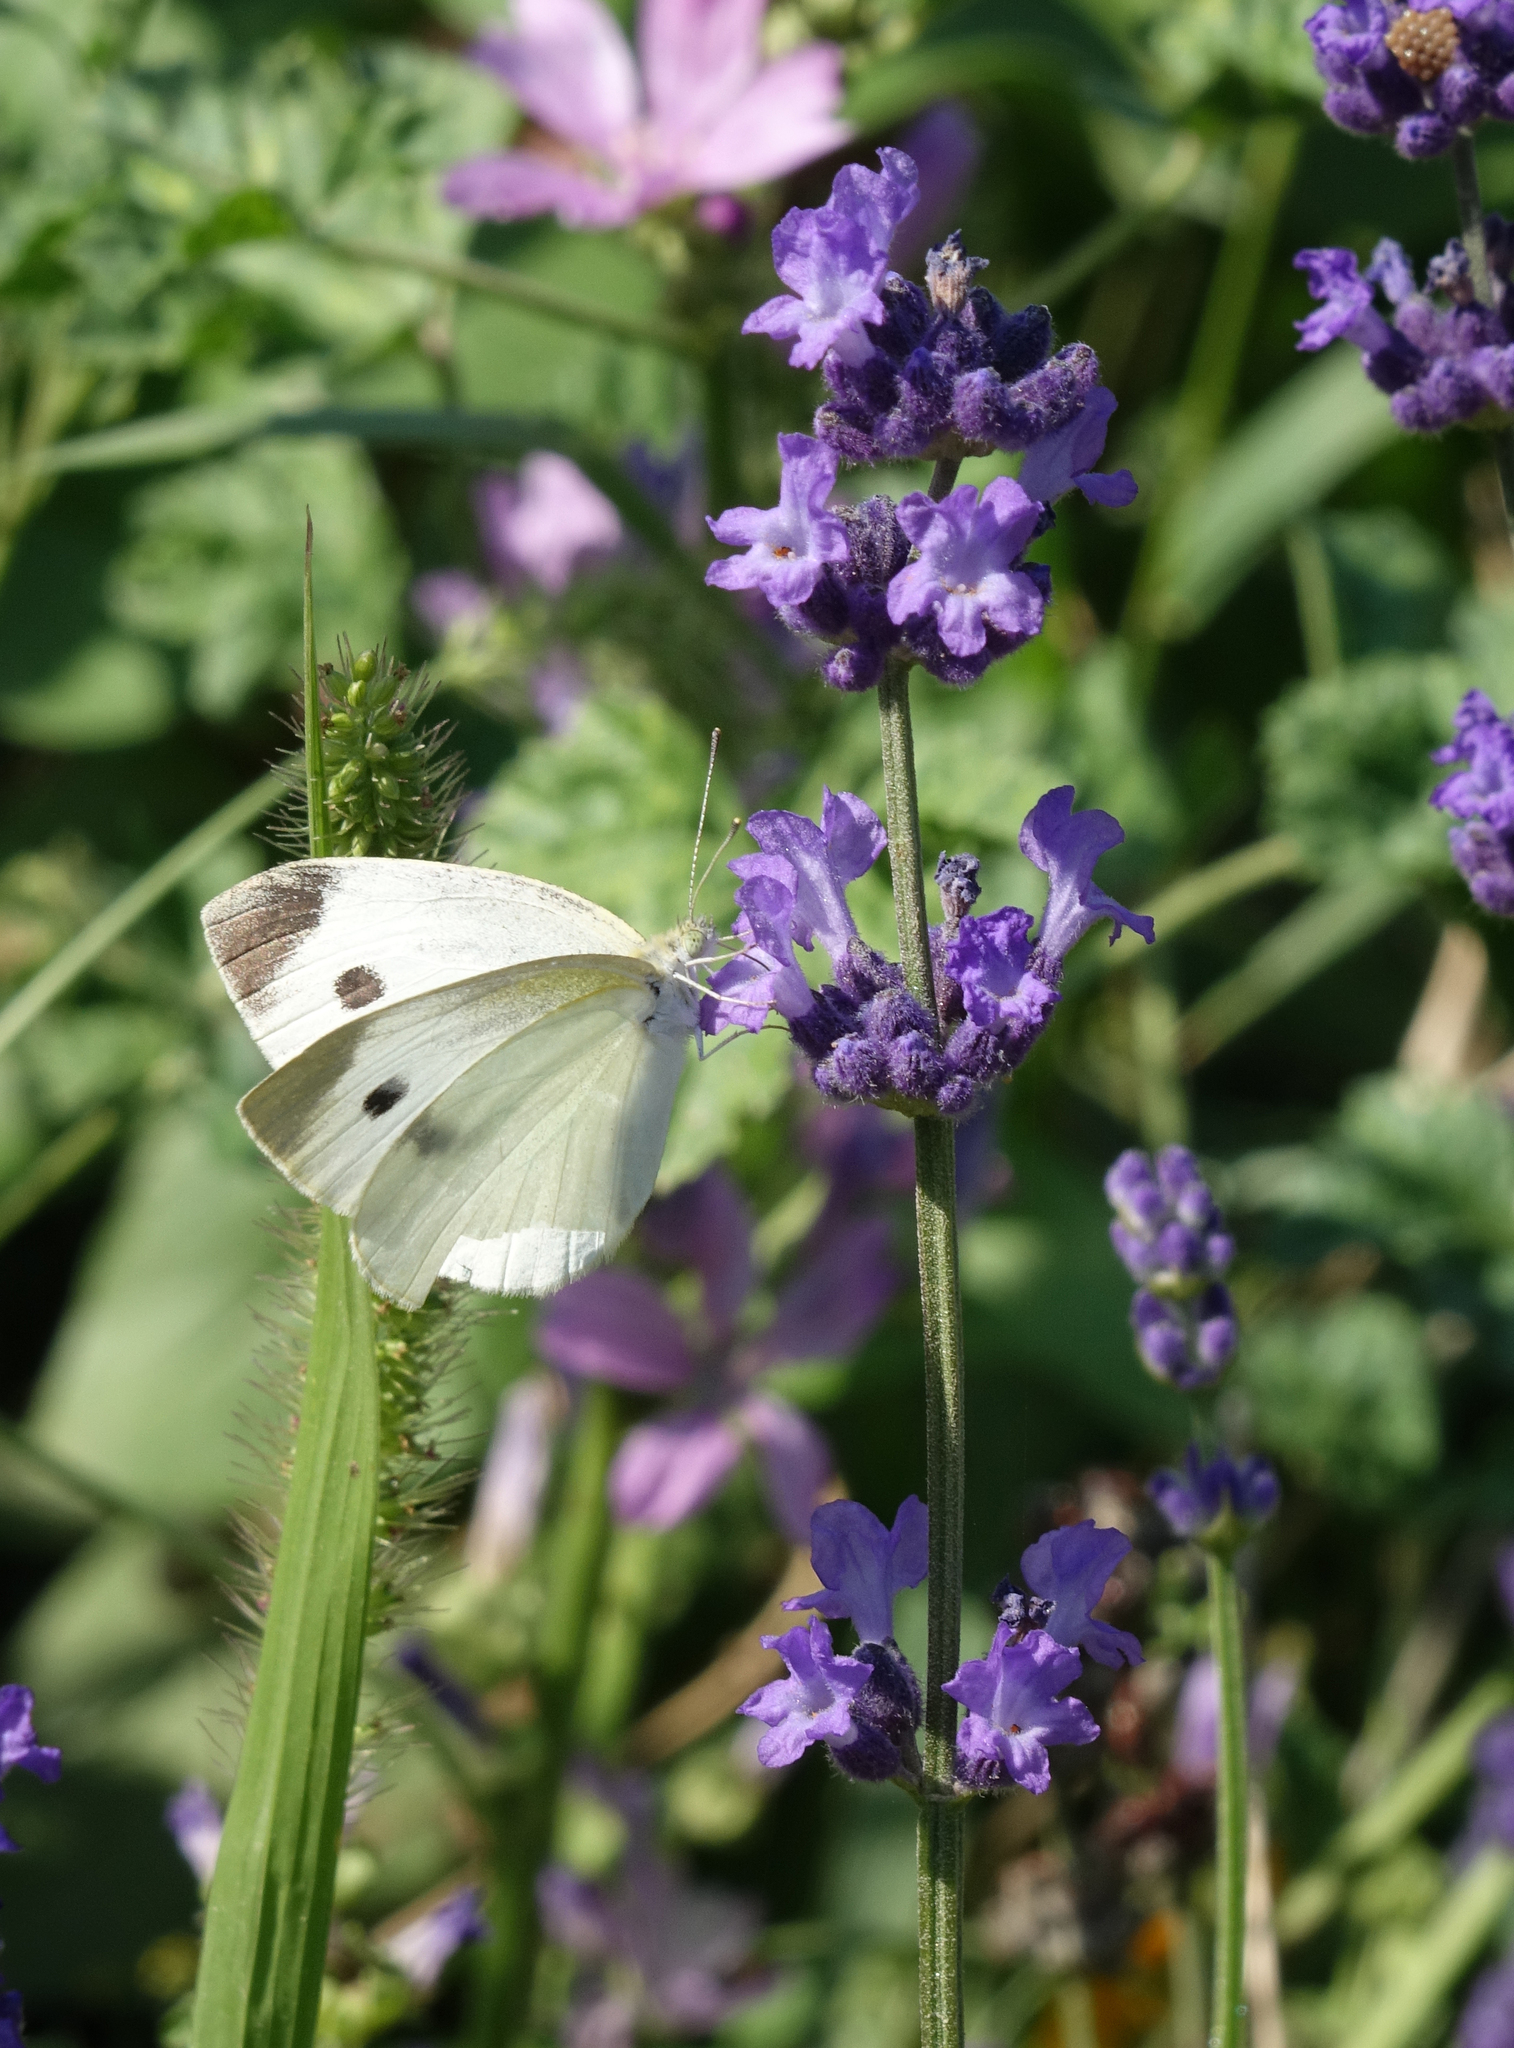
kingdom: Animalia
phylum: Arthropoda
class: Insecta
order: Lepidoptera
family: Pieridae
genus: Pieris
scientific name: Pieris rapae
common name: Small white
